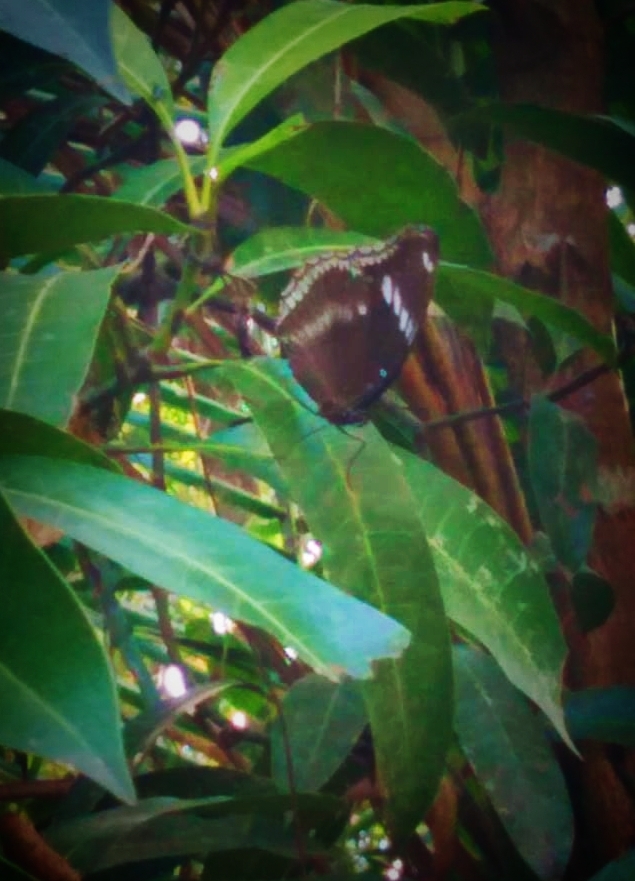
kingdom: Animalia
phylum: Arthropoda
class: Insecta
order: Lepidoptera
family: Nymphalidae
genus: Hypolimnas
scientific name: Hypolimnas bolina
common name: Great eggfly
